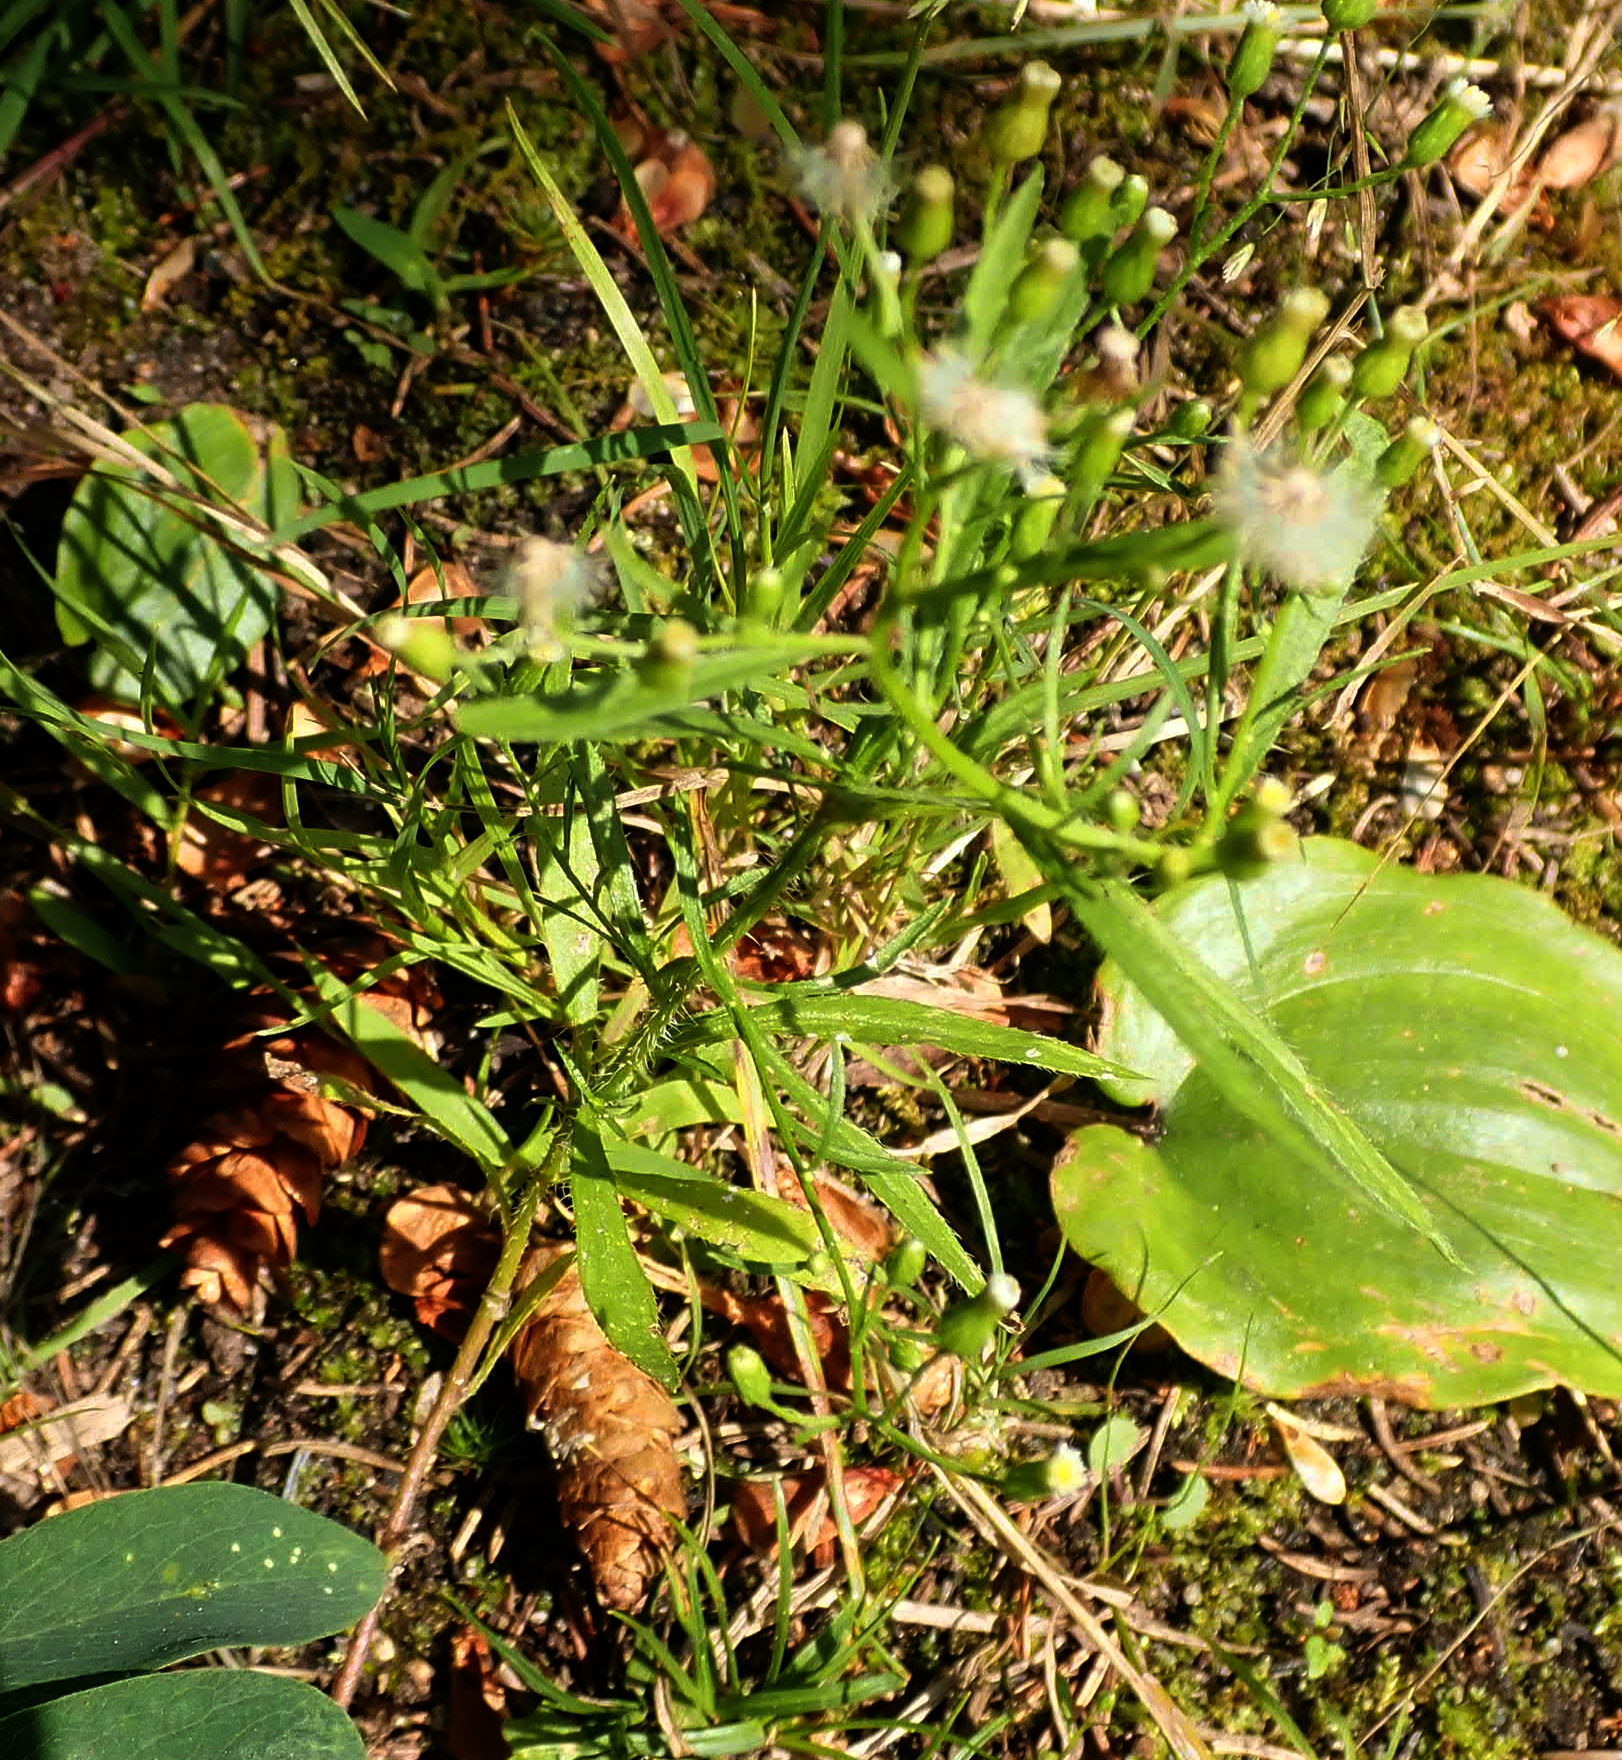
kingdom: Plantae
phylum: Tracheophyta
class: Magnoliopsida
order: Asterales
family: Asteraceae
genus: Erigeron
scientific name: Erigeron canadensis
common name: Canadian fleabane
